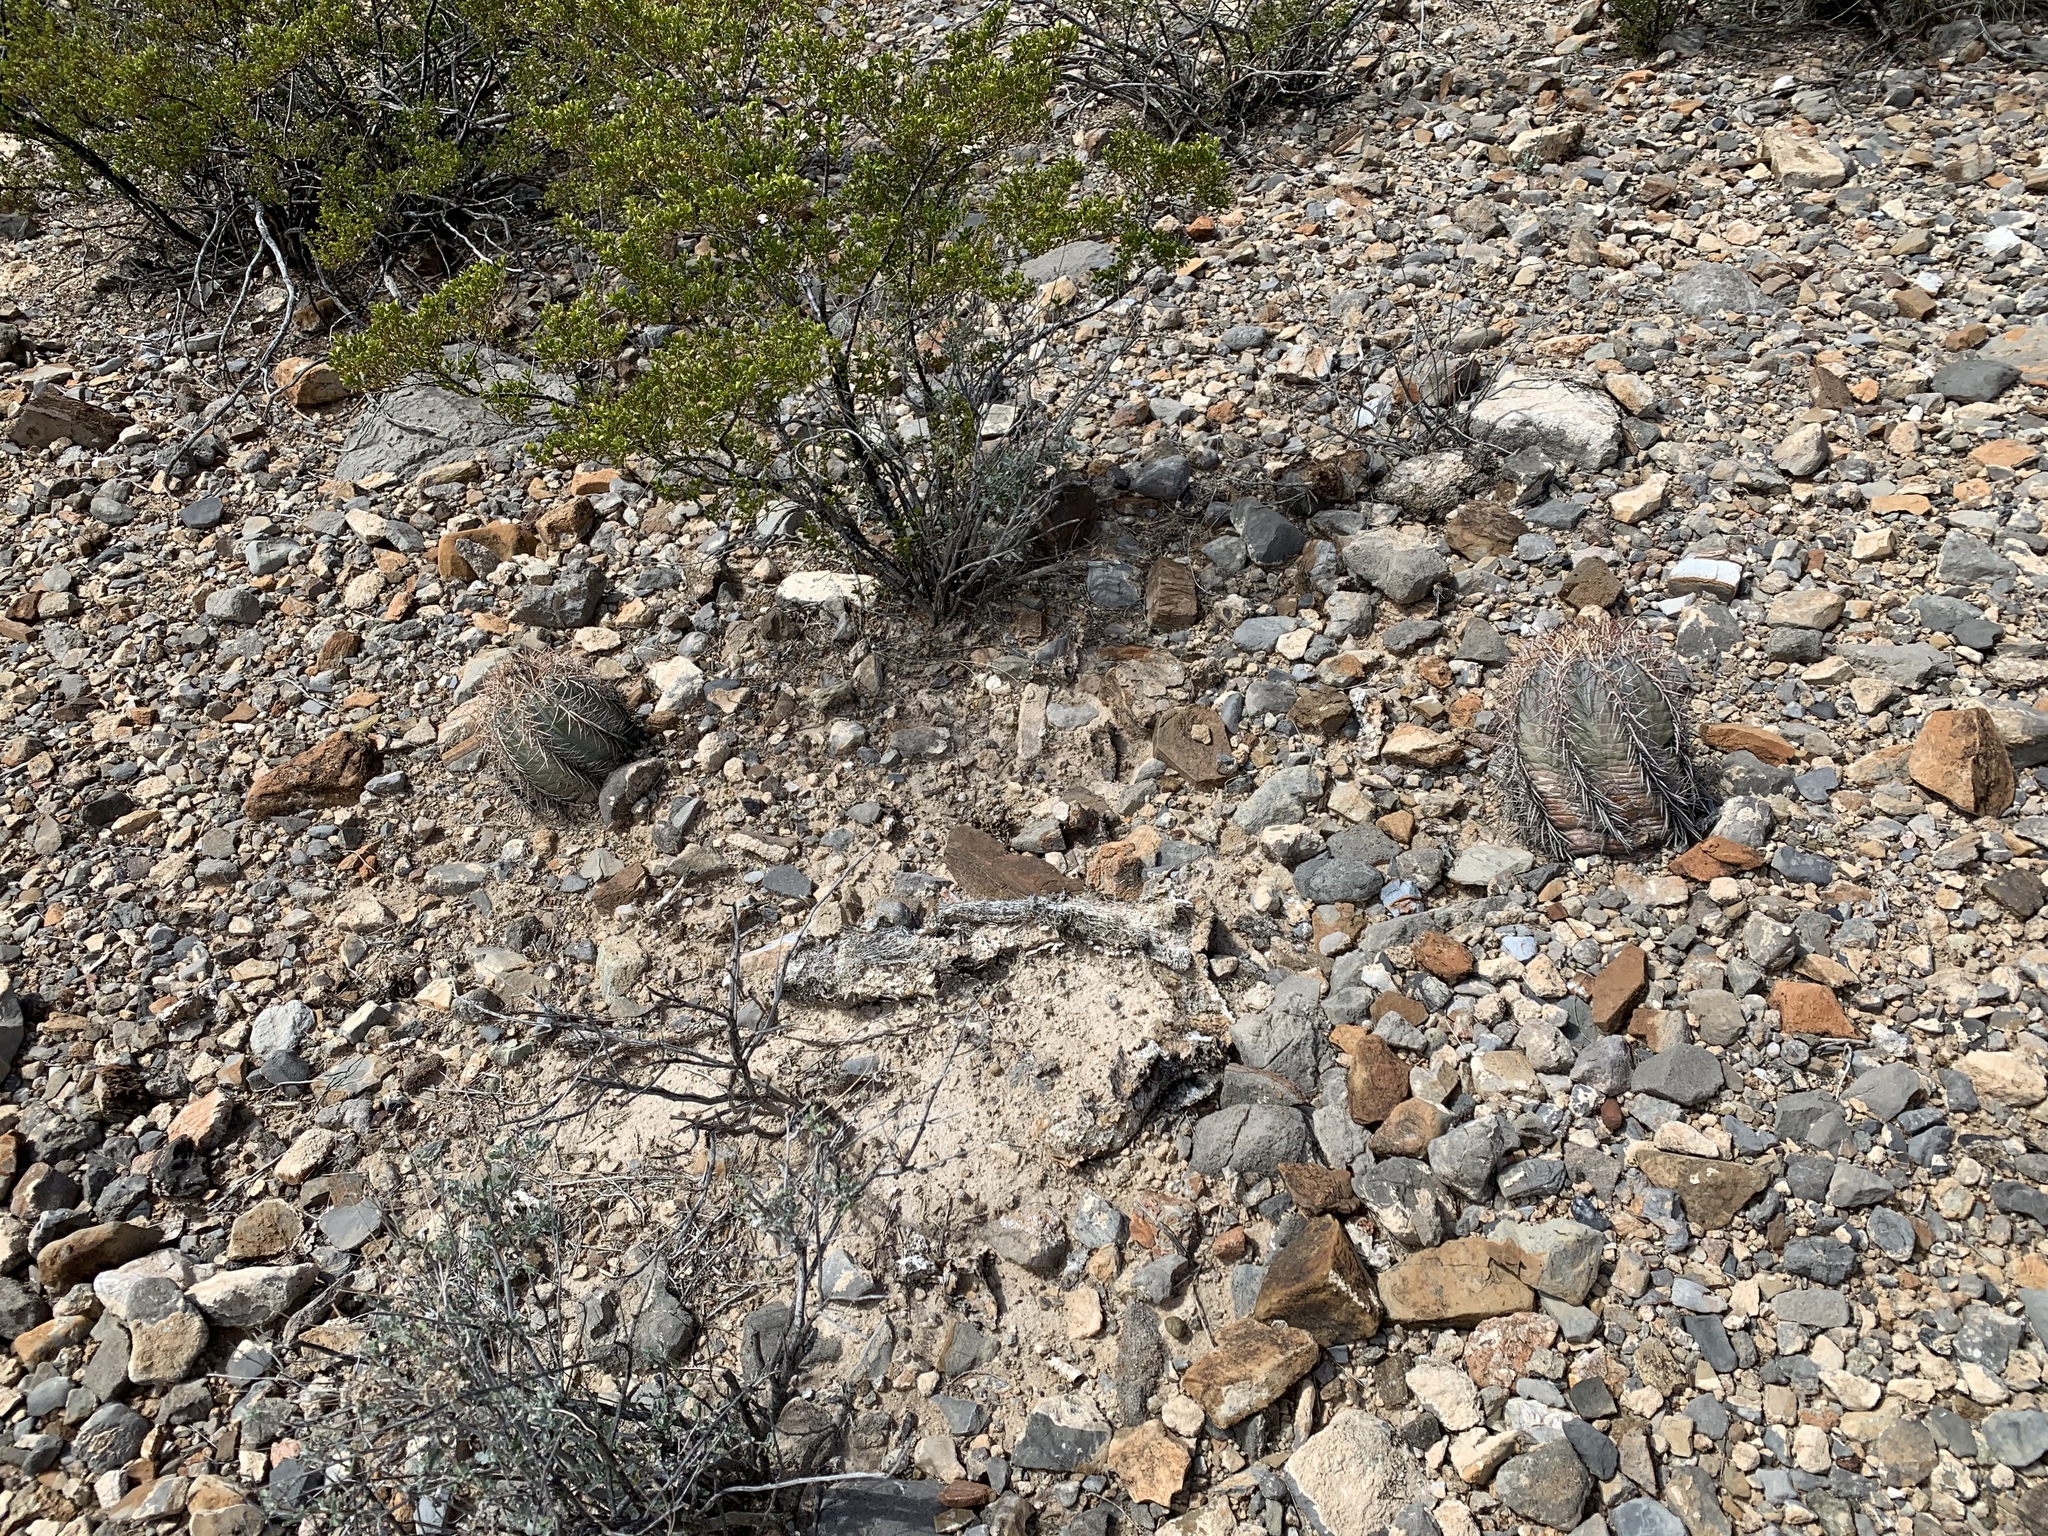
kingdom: Plantae
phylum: Tracheophyta
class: Magnoliopsida
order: Caryophyllales
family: Cactaceae
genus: Echinocactus
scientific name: Echinocactus horizonthalonius
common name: Devilshead
